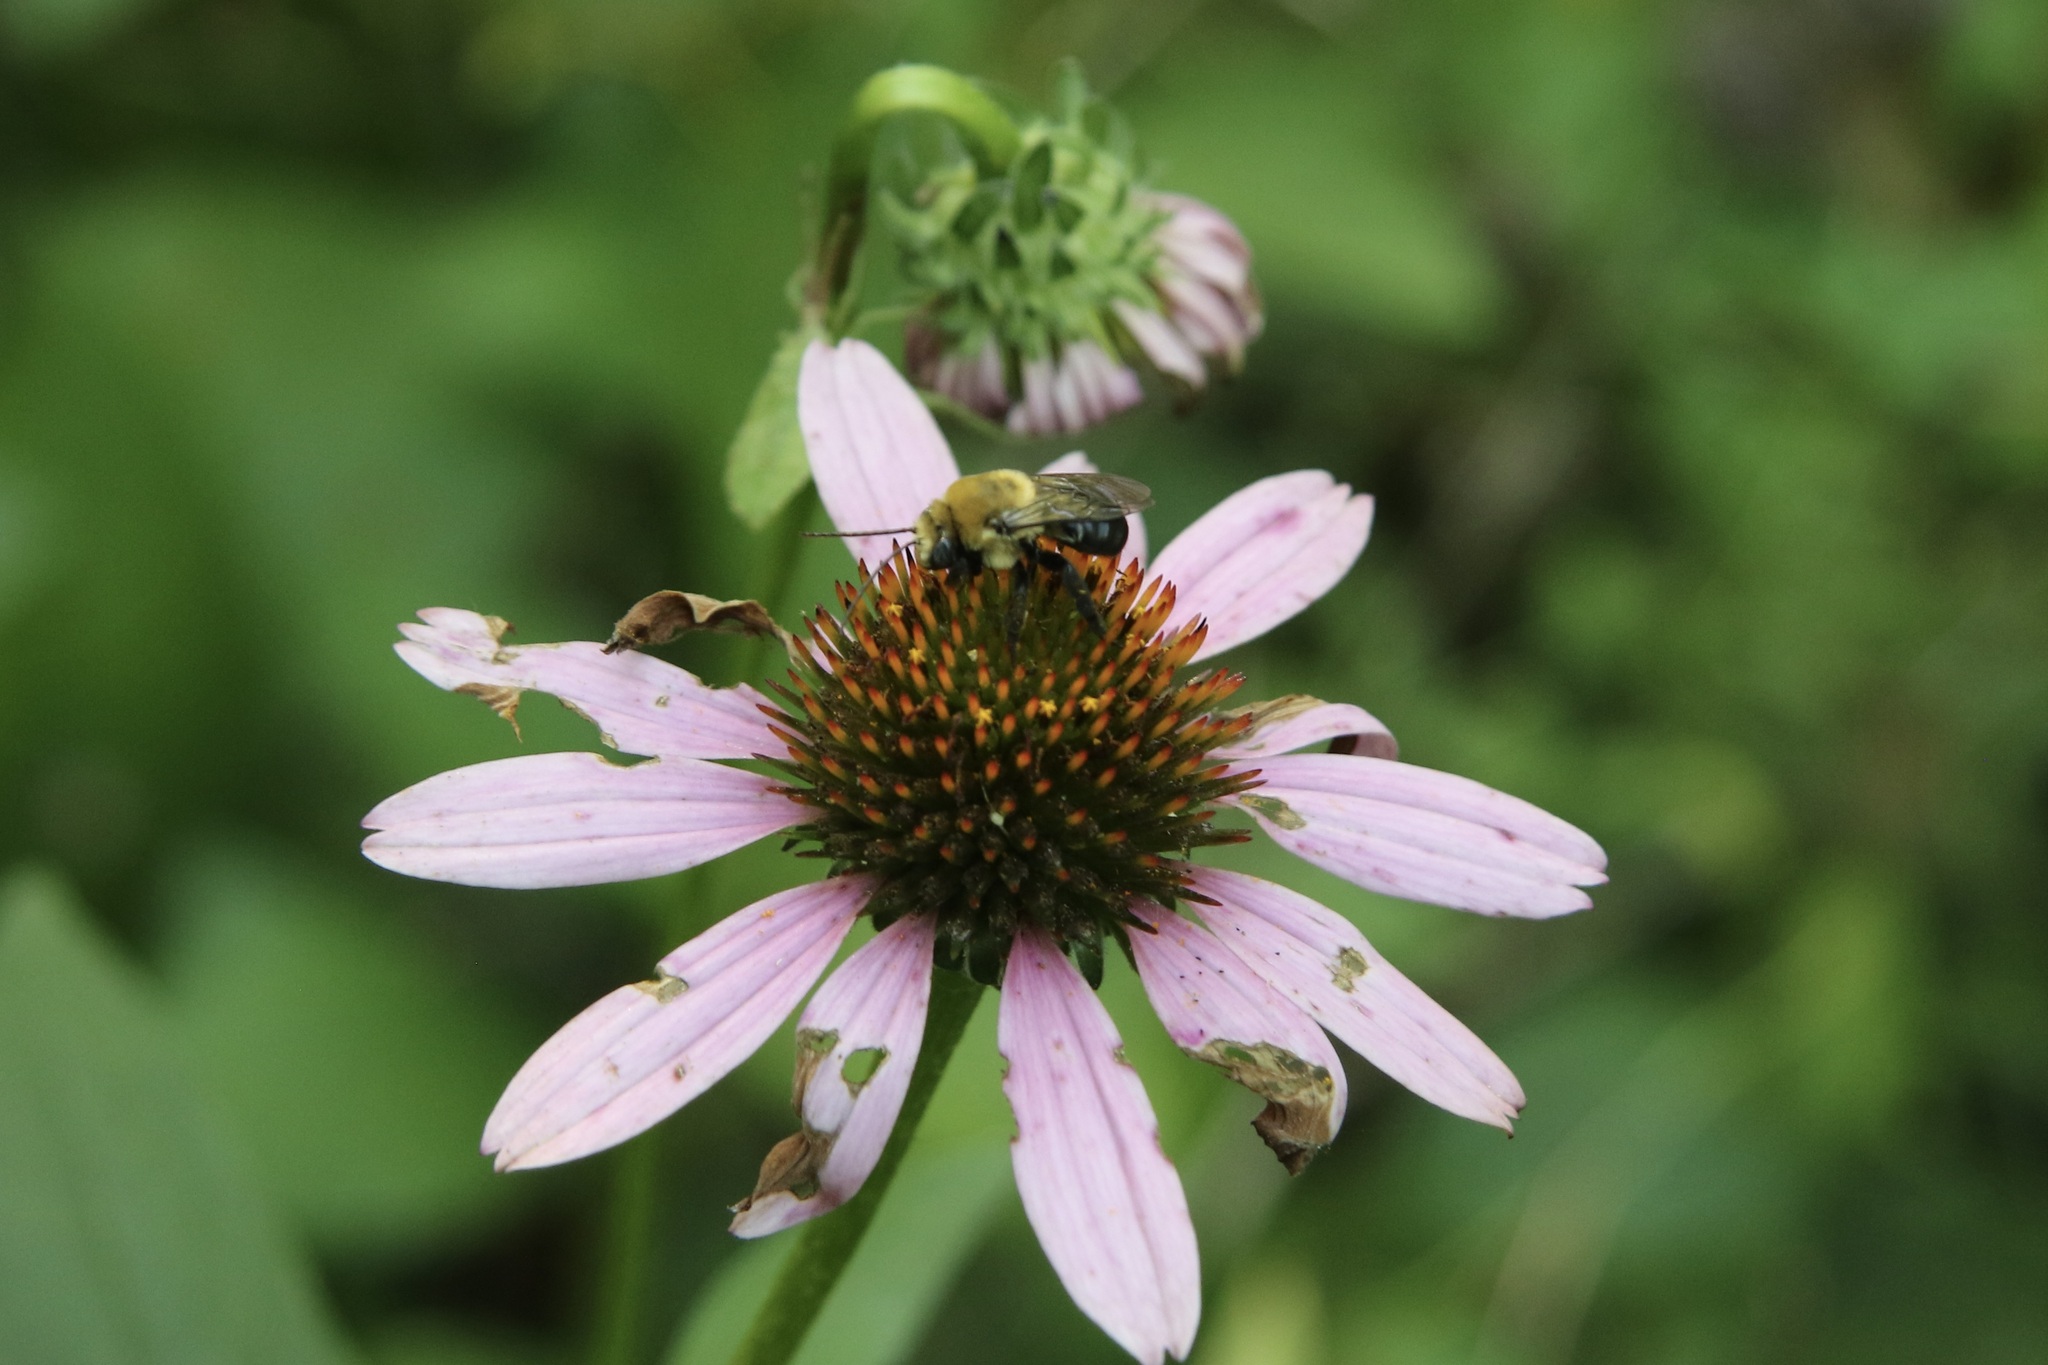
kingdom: Animalia
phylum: Arthropoda
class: Insecta
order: Hymenoptera
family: Apidae
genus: Melissodes
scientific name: Melissodes desponsus
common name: Thistle long-horned bee
